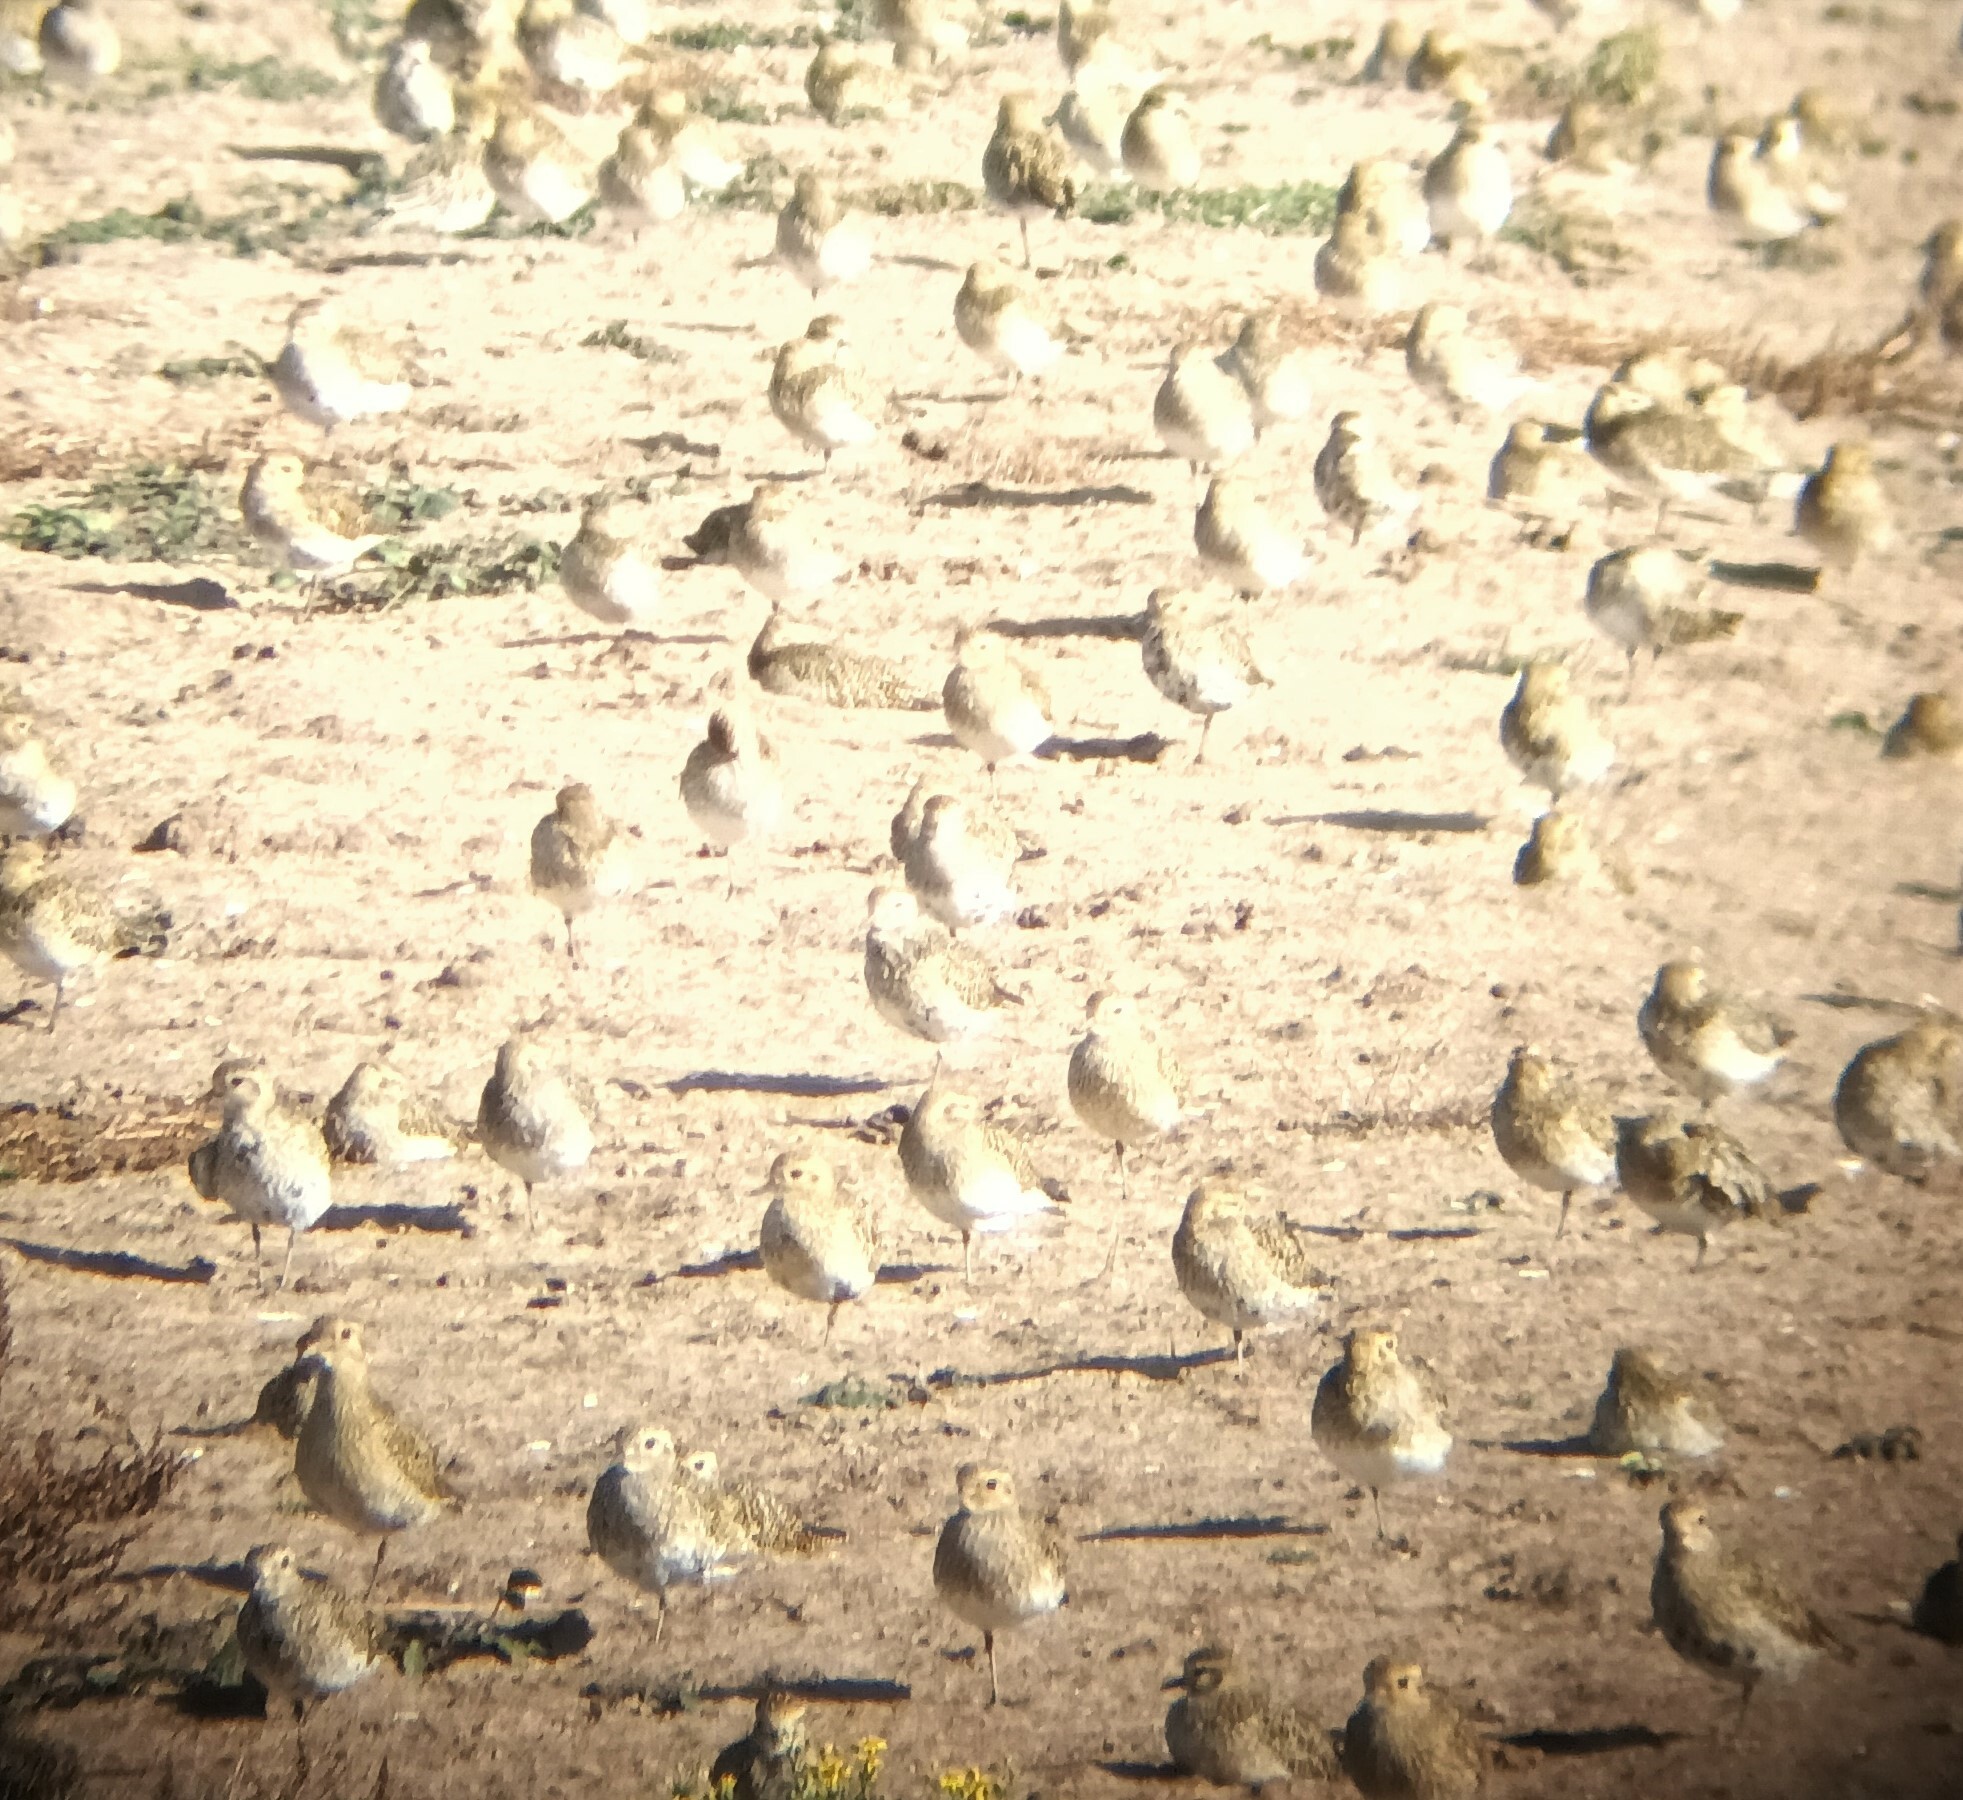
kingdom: Animalia
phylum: Chordata
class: Aves
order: Charadriiformes
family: Charadriidae
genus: Pluvialis
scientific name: Pluvialis apricaria
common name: European golden plover
